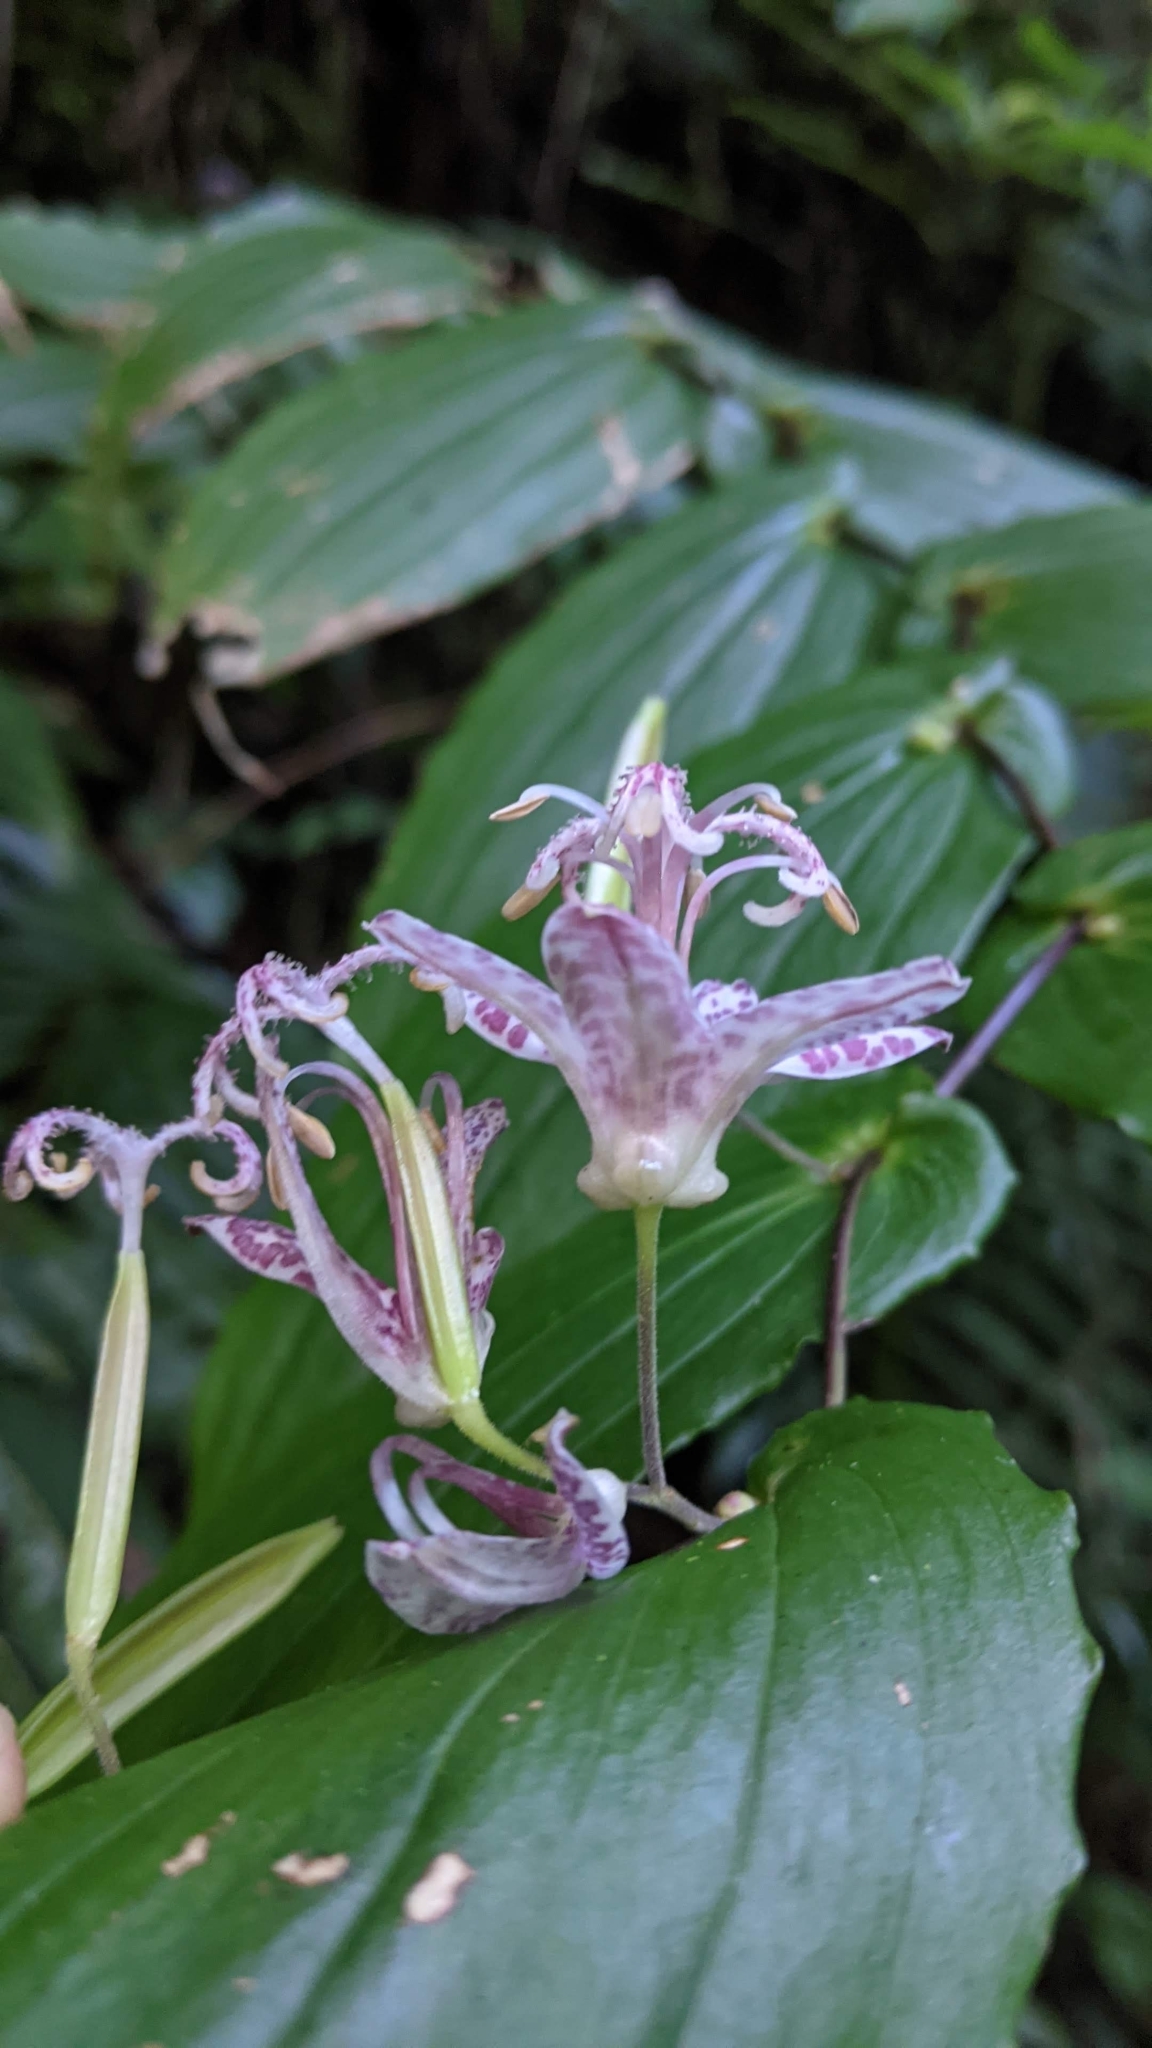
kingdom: Plantae
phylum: Tracheophyta
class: Liliopsida
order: Liliales
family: Liliaceae
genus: Tricyrtis
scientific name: Tricyrtis suzukii
